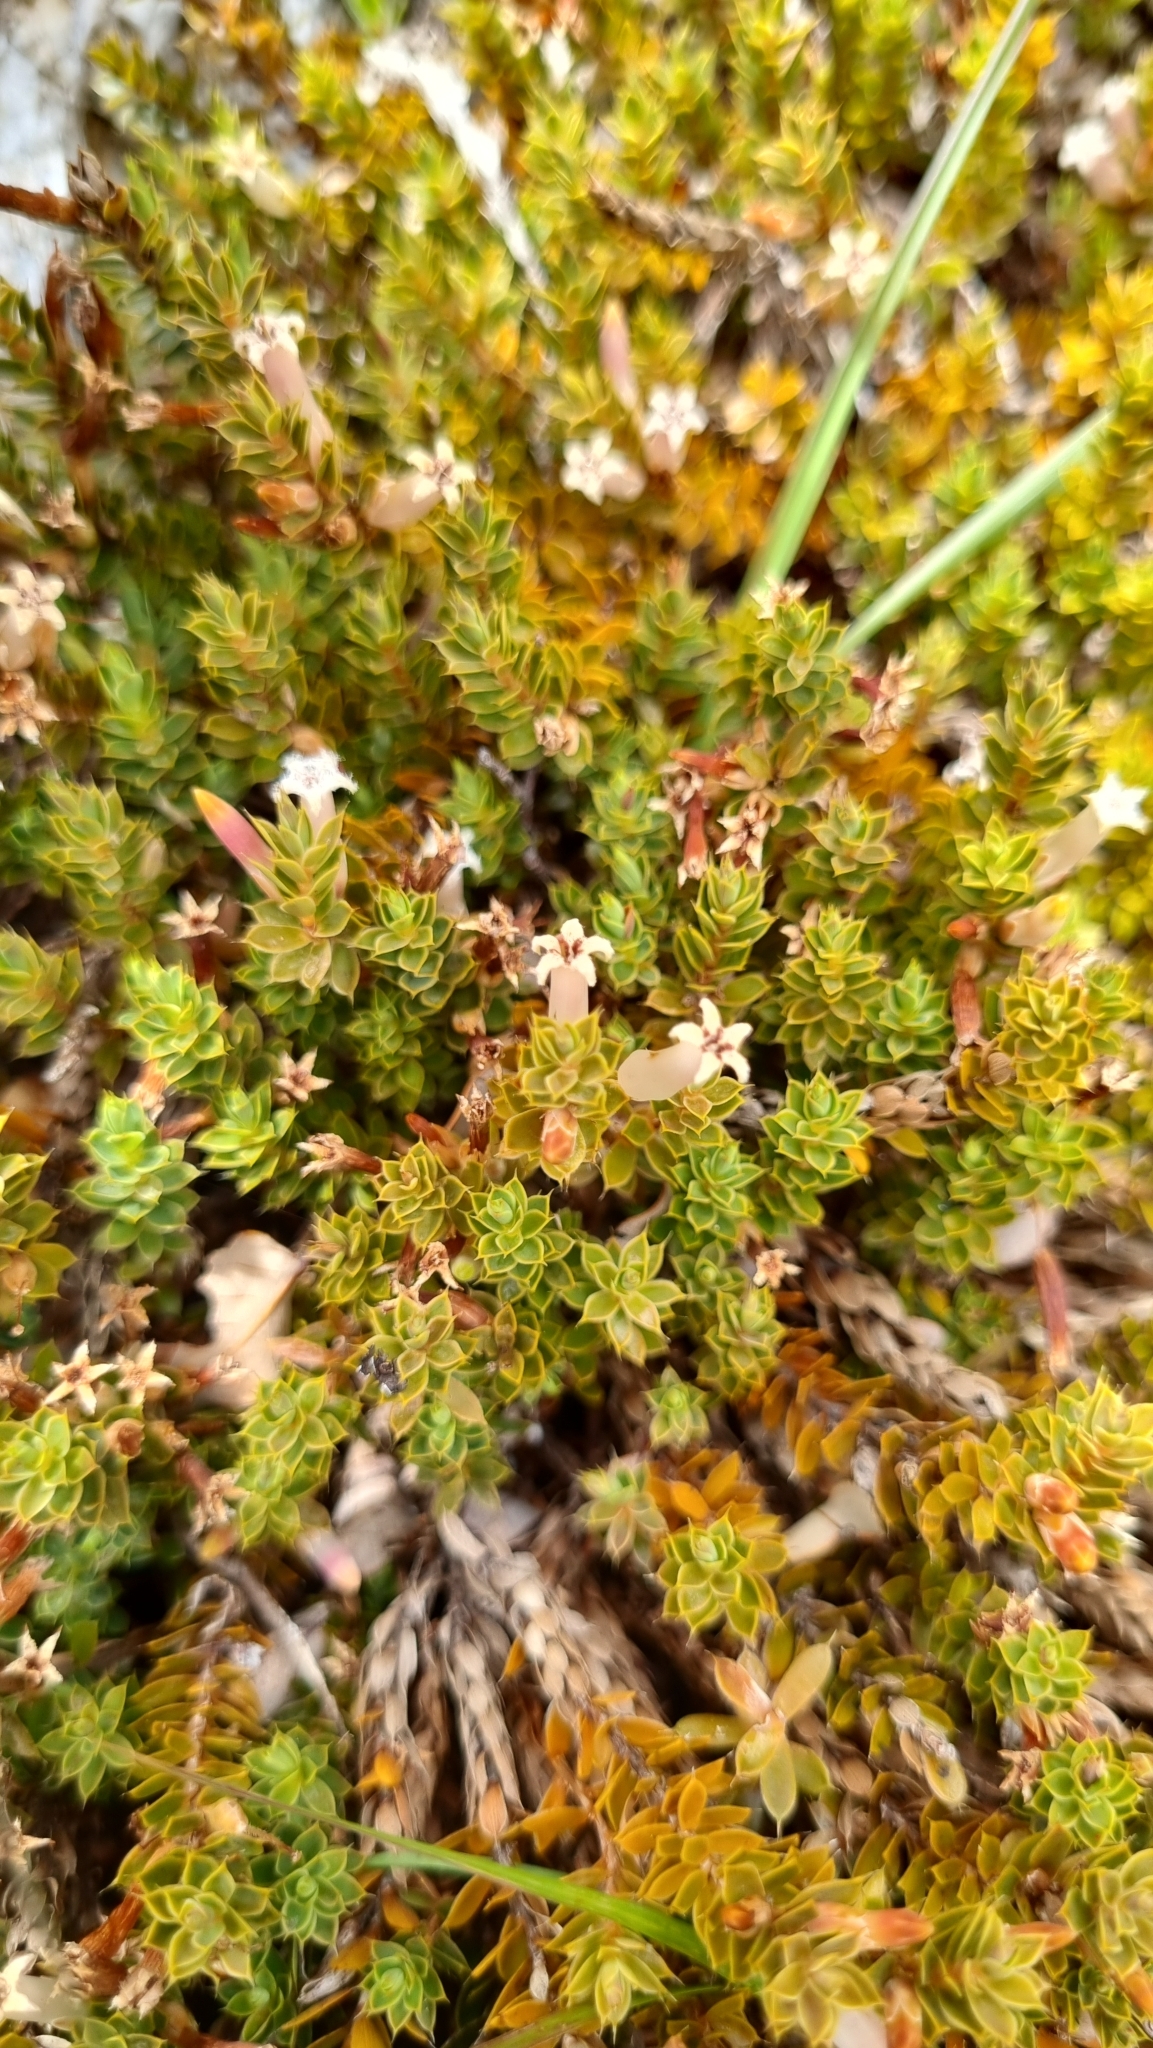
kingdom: Plantae
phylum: Tracheophyta
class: Magnoliopsida
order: Ericales
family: Ericaceae
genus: Styphelia
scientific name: Styphelia nesophila
